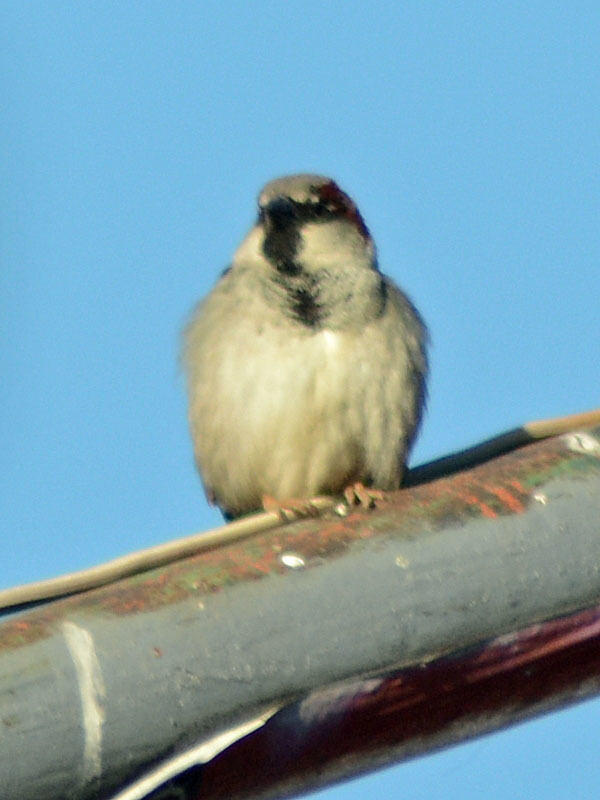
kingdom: Animalia
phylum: Chordata
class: Aves
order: Passeriformes
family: Passeridae
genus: Passer
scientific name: Passer domesticus
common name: House sparrow
